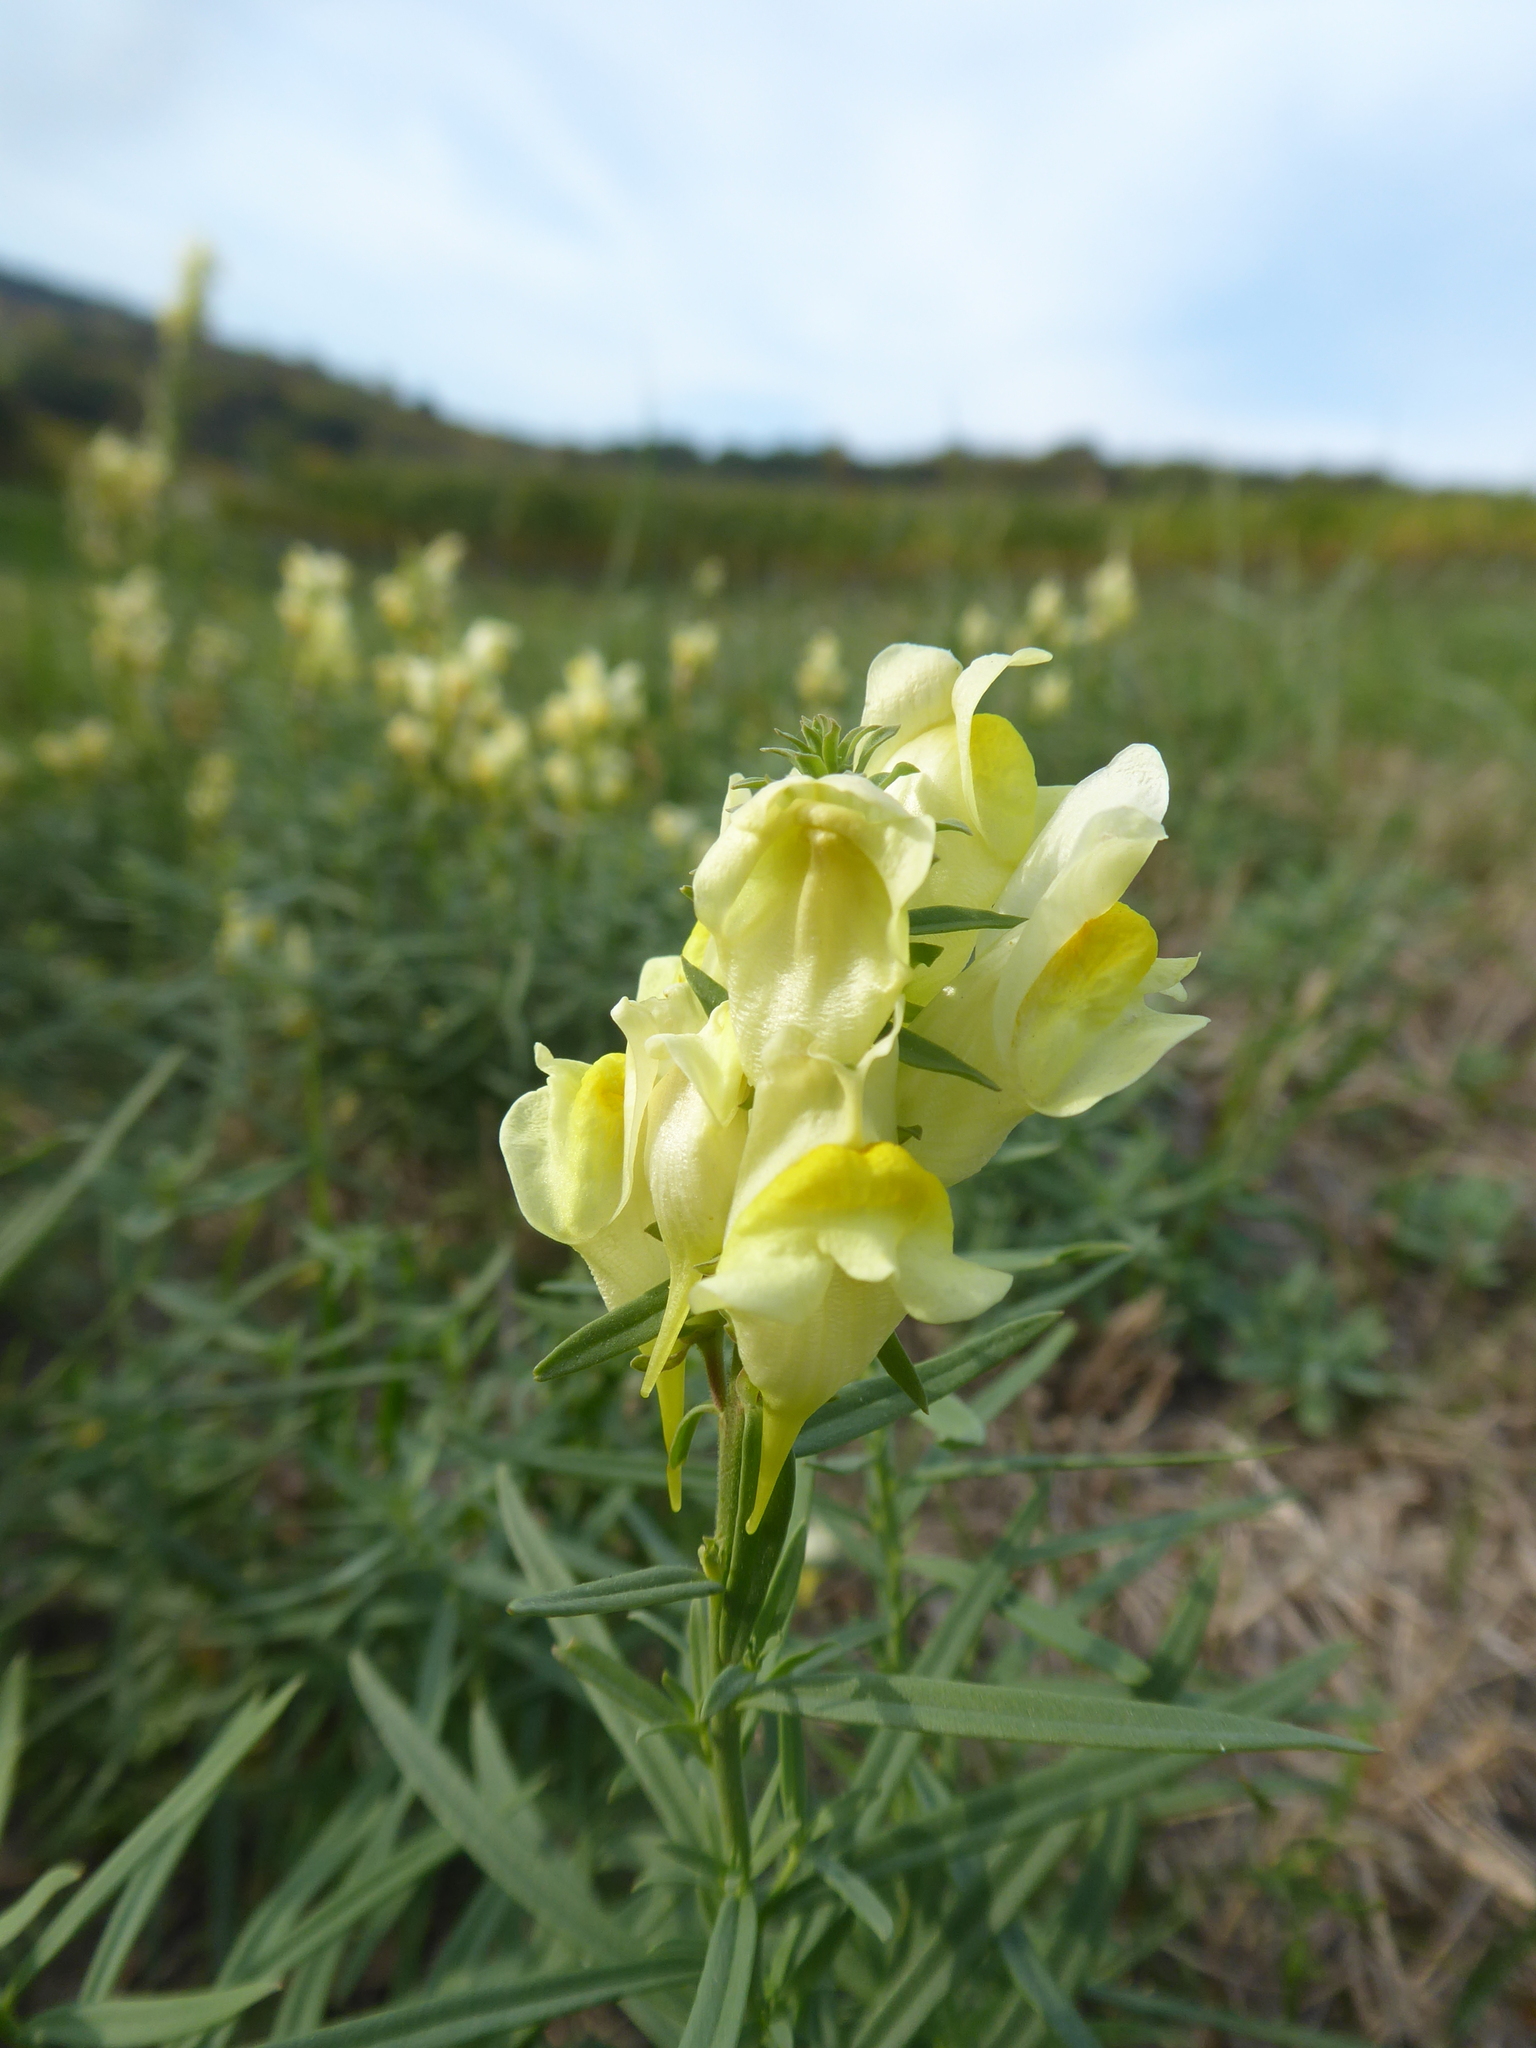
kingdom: Plantae
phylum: Tracheophyta
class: Magnoliopsida
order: Lamiales
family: Plantaginaceae
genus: Linaria
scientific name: Linaria vulgaris
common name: Butter and eggs
